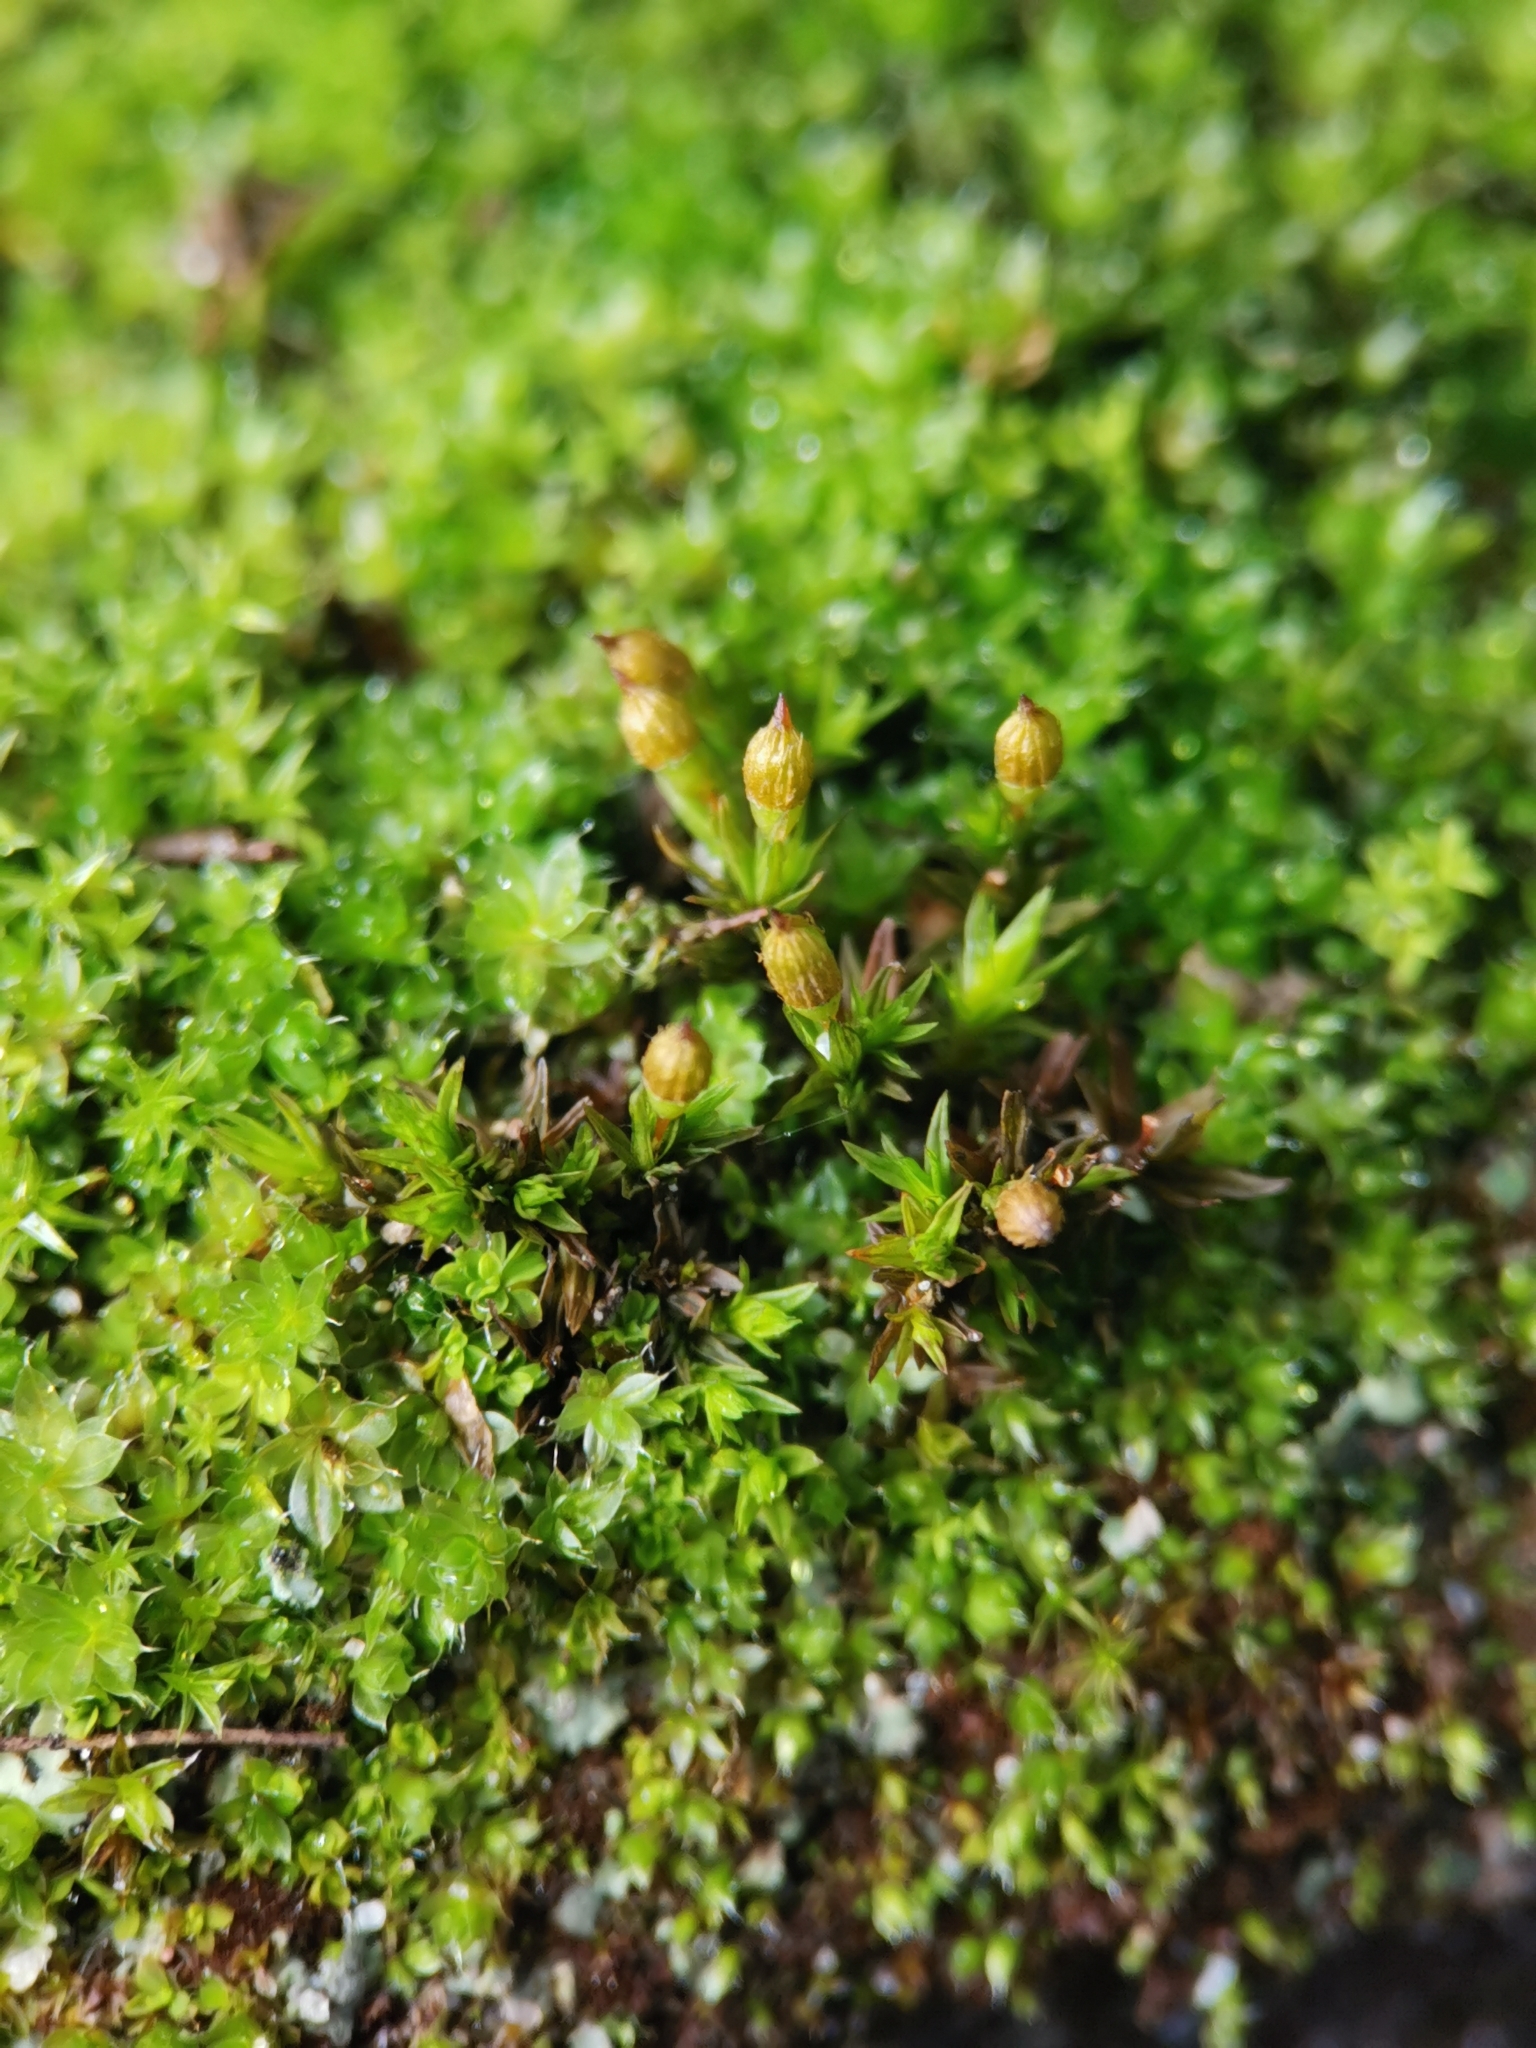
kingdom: Plantae
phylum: Bryophyta
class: Bryopsida
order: Orthotrichales
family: Orthotrichaceae
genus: Orthotrichum
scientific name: Orthotrichum anomalum
